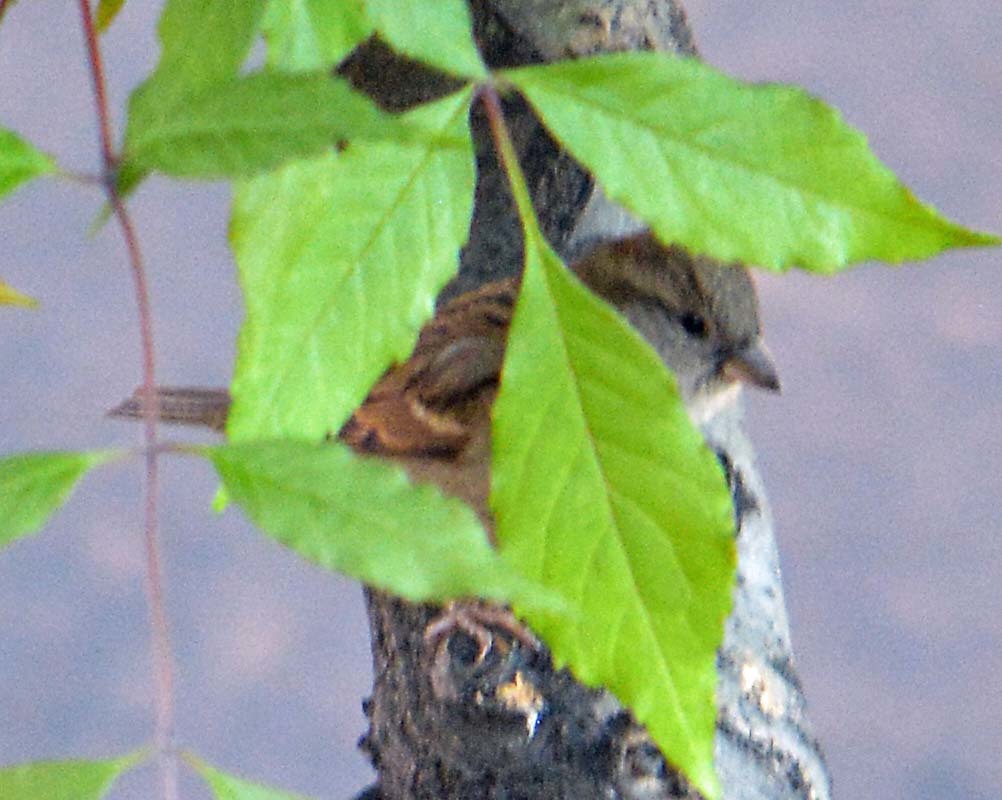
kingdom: Animalia
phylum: Chordata
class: Aves
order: Passeriformes
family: Passeridae
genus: Passer
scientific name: Passer domesticus
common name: House sparrow
